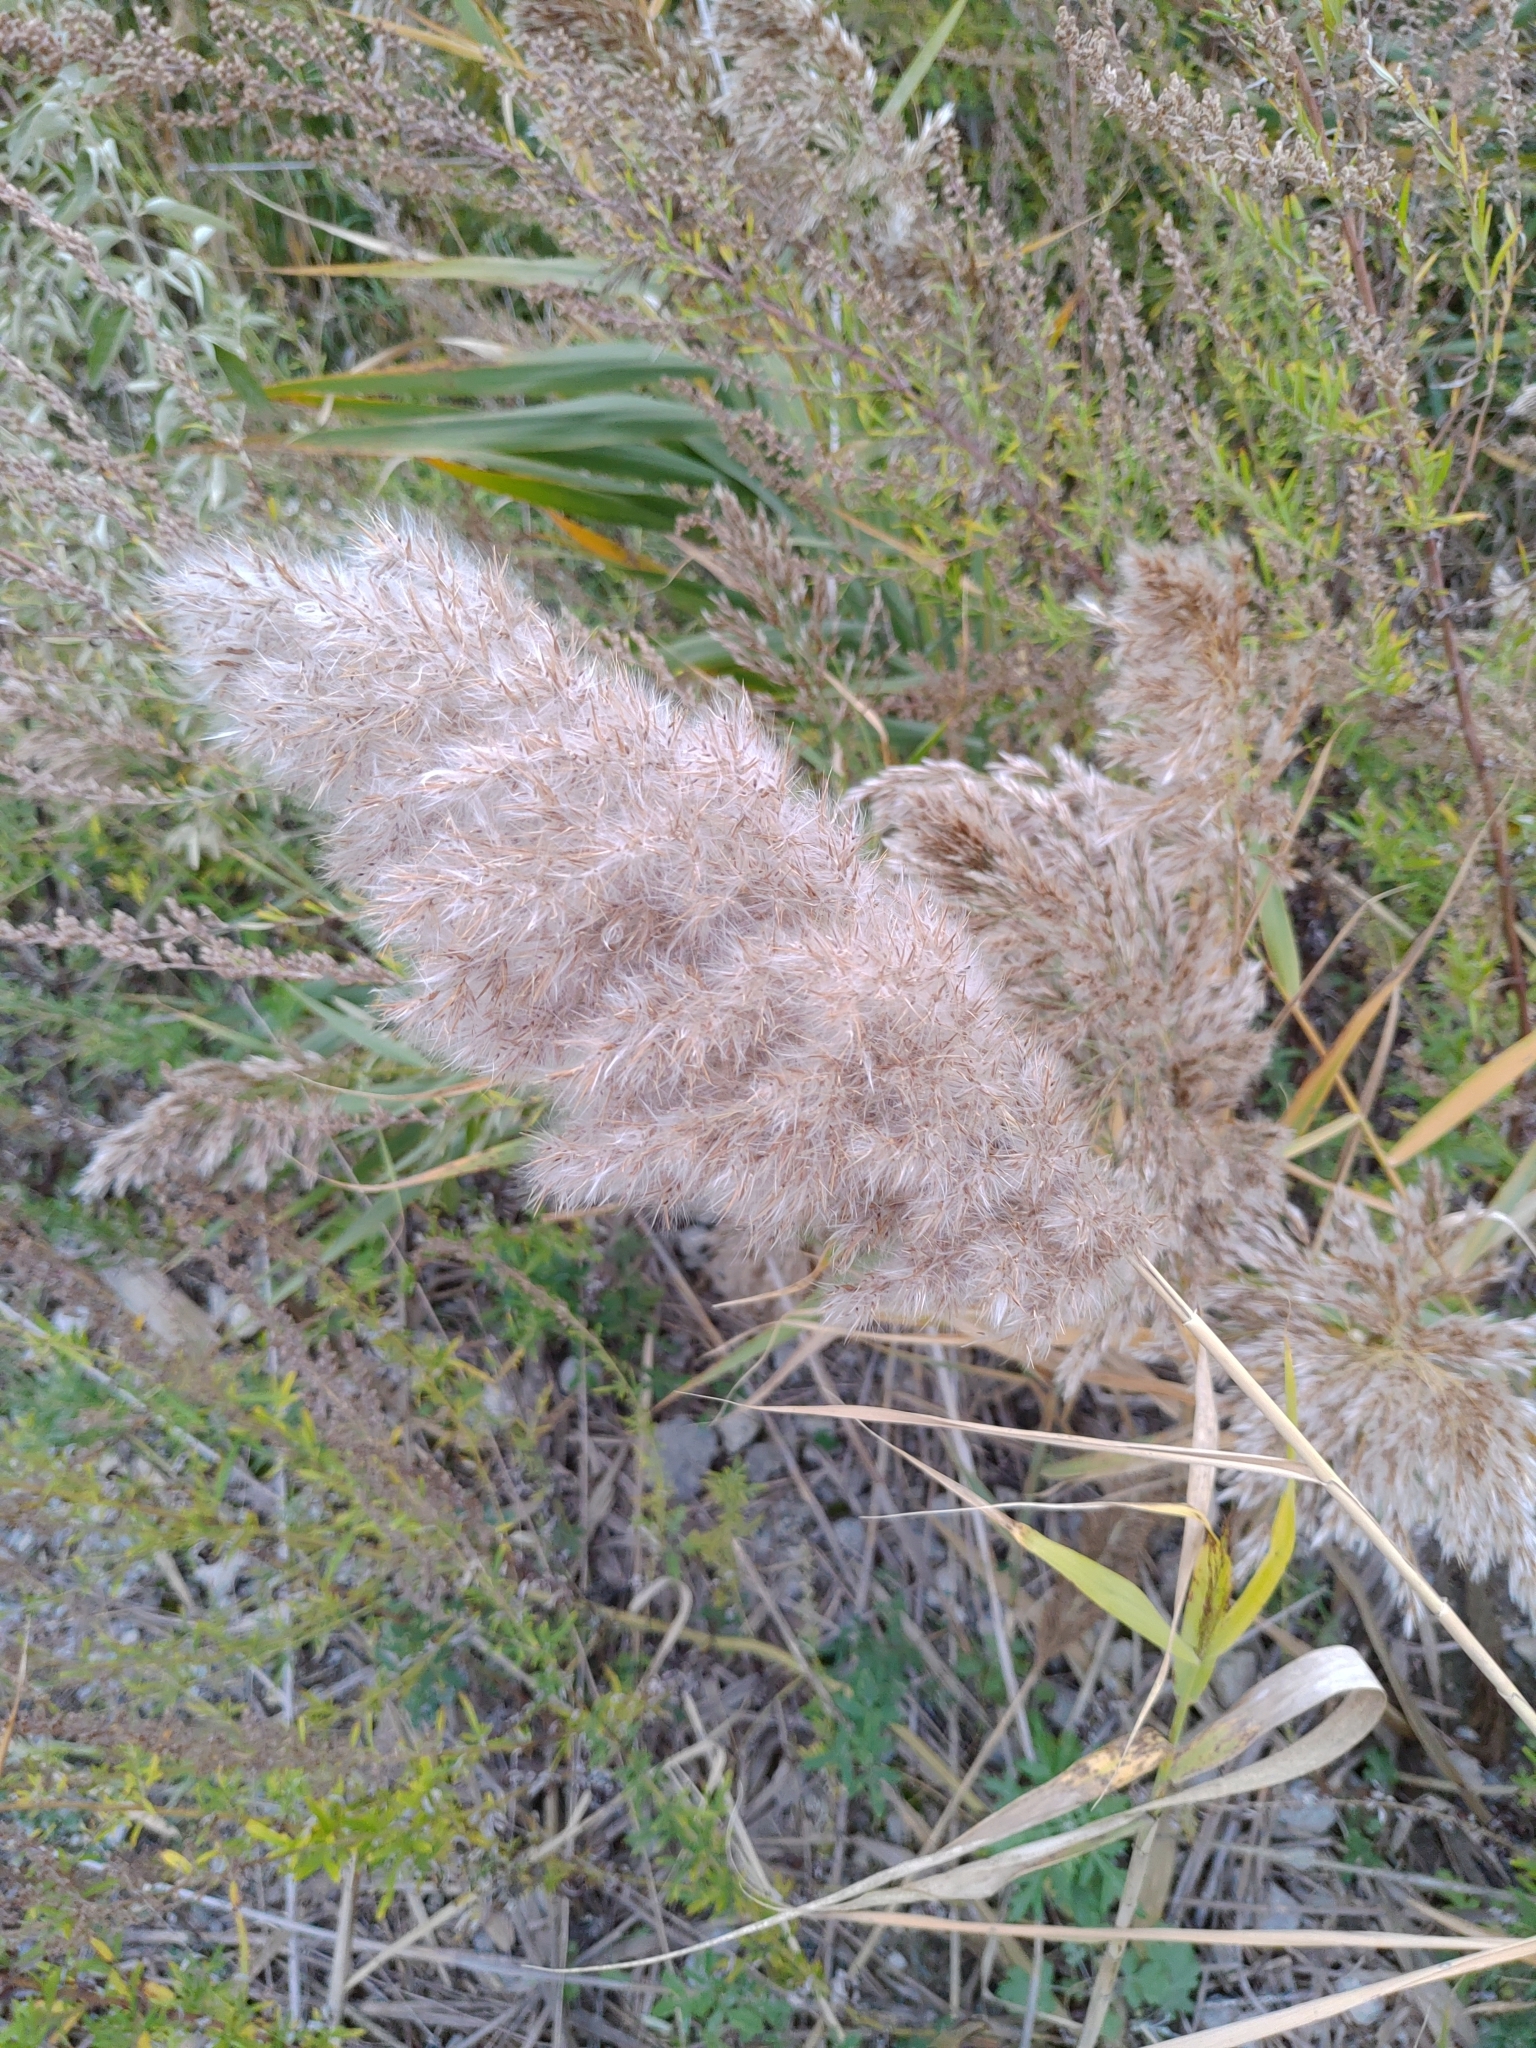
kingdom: Plantae
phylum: Tracheophyta
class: Liliopsida
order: Poales
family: Poaceae
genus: Phragmites
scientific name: Phragmites australis
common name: Common reed
